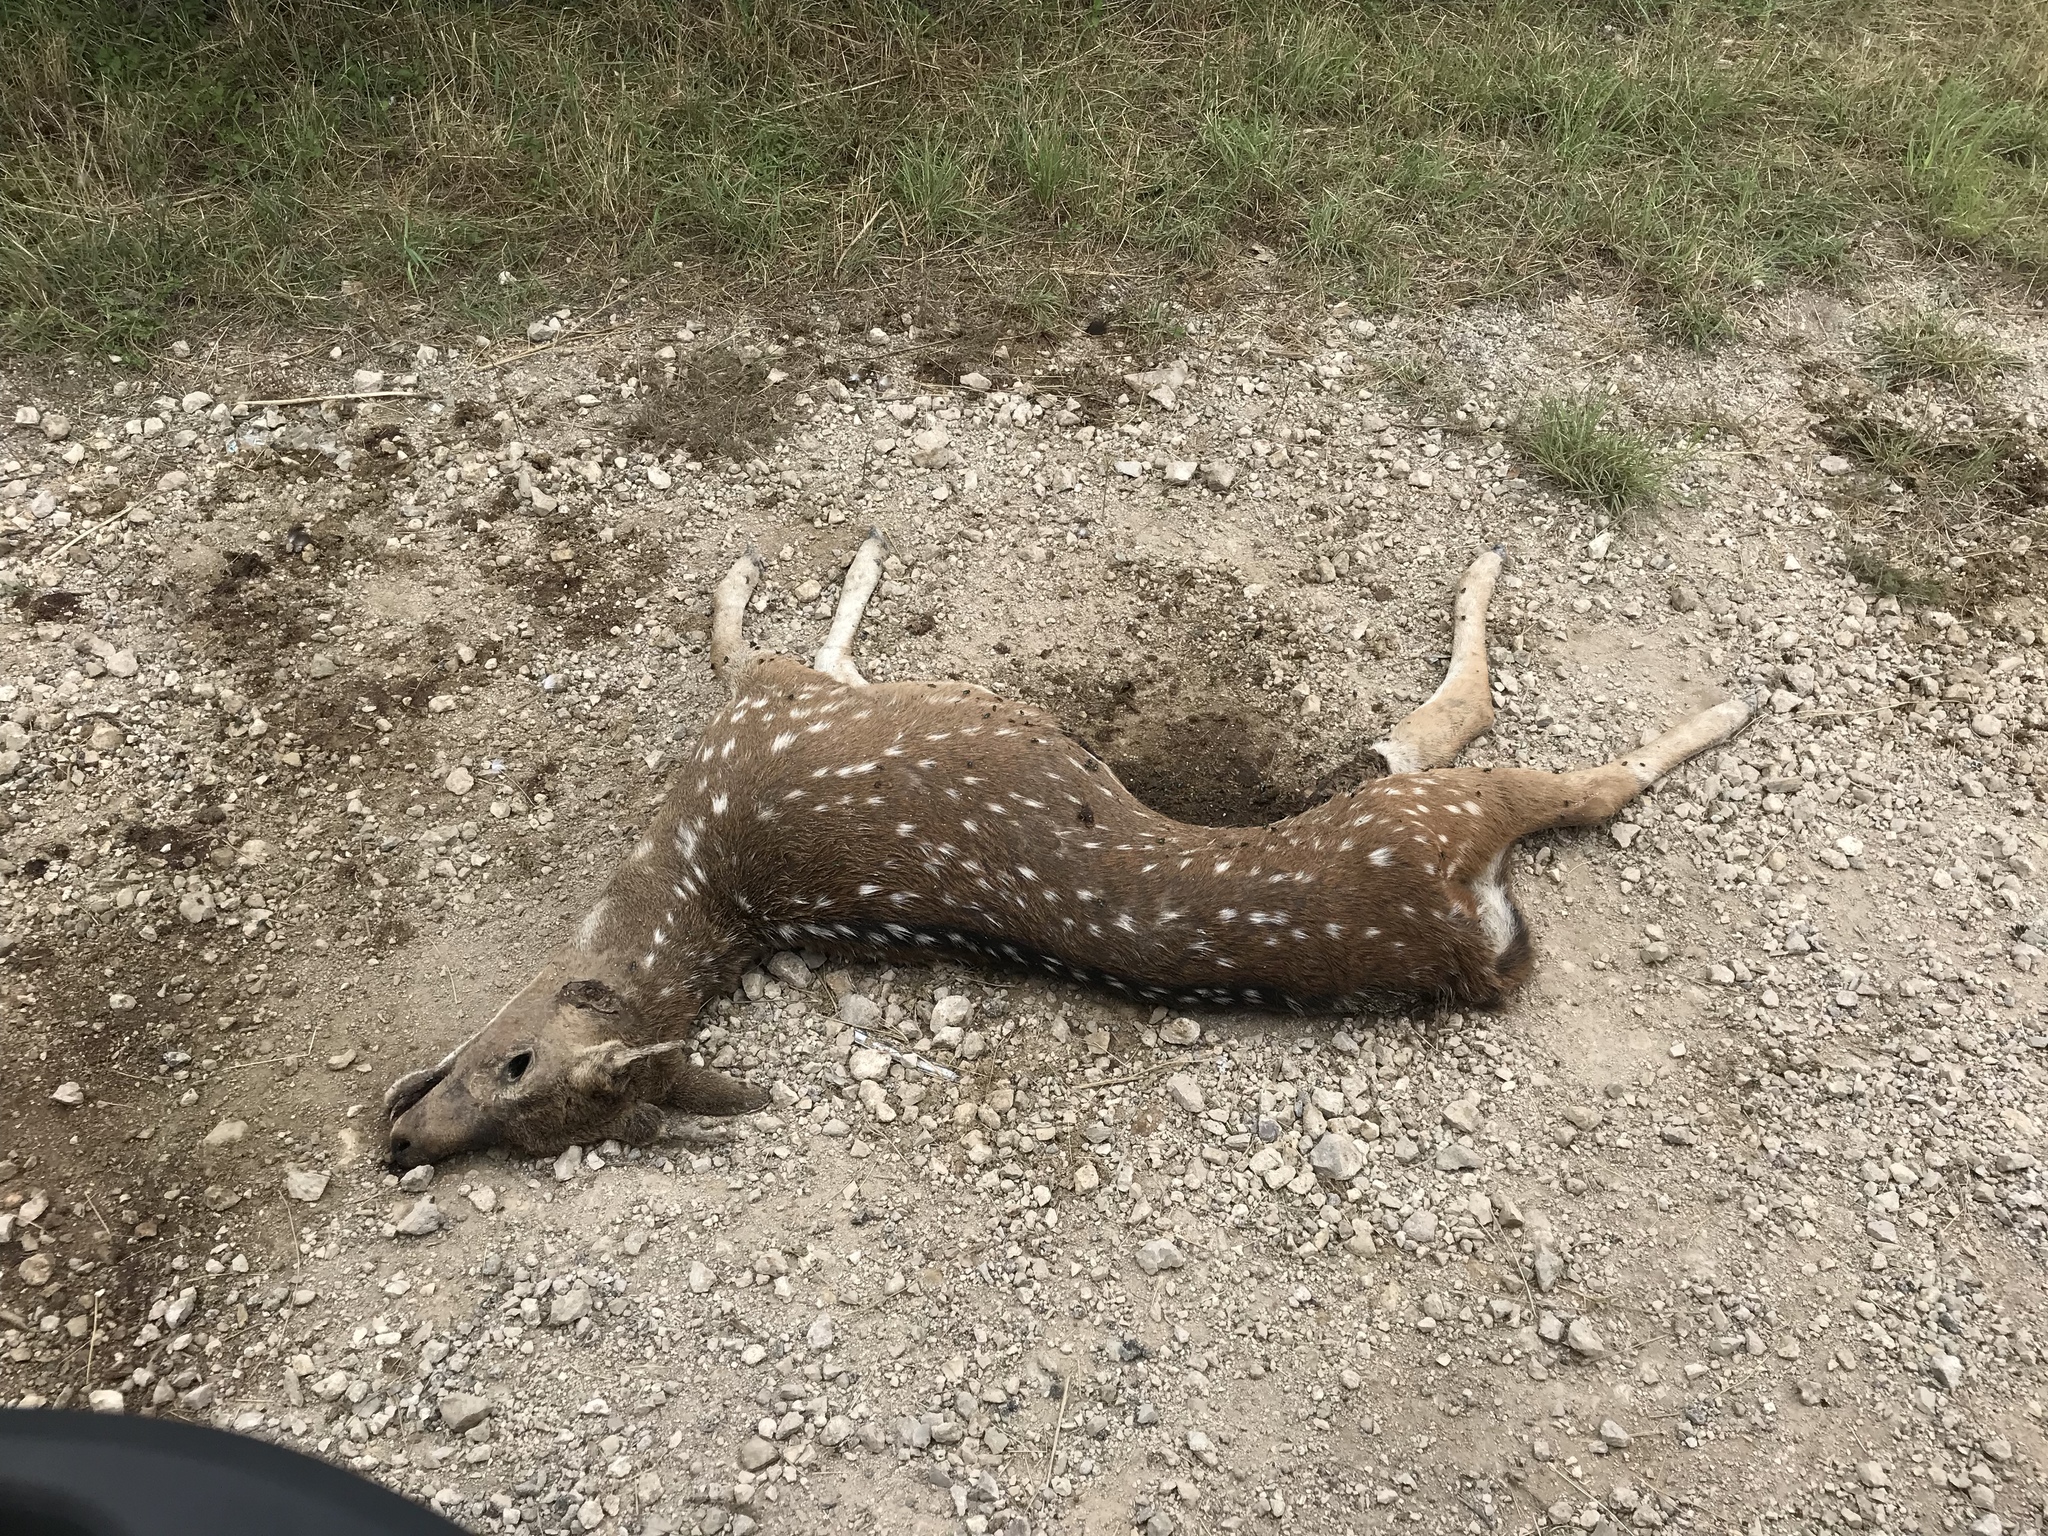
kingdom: Animalia
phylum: Chordata
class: Mammalia
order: Artiodactyla
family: Cervidae
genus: Axis
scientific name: Axis axis
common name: Chital
